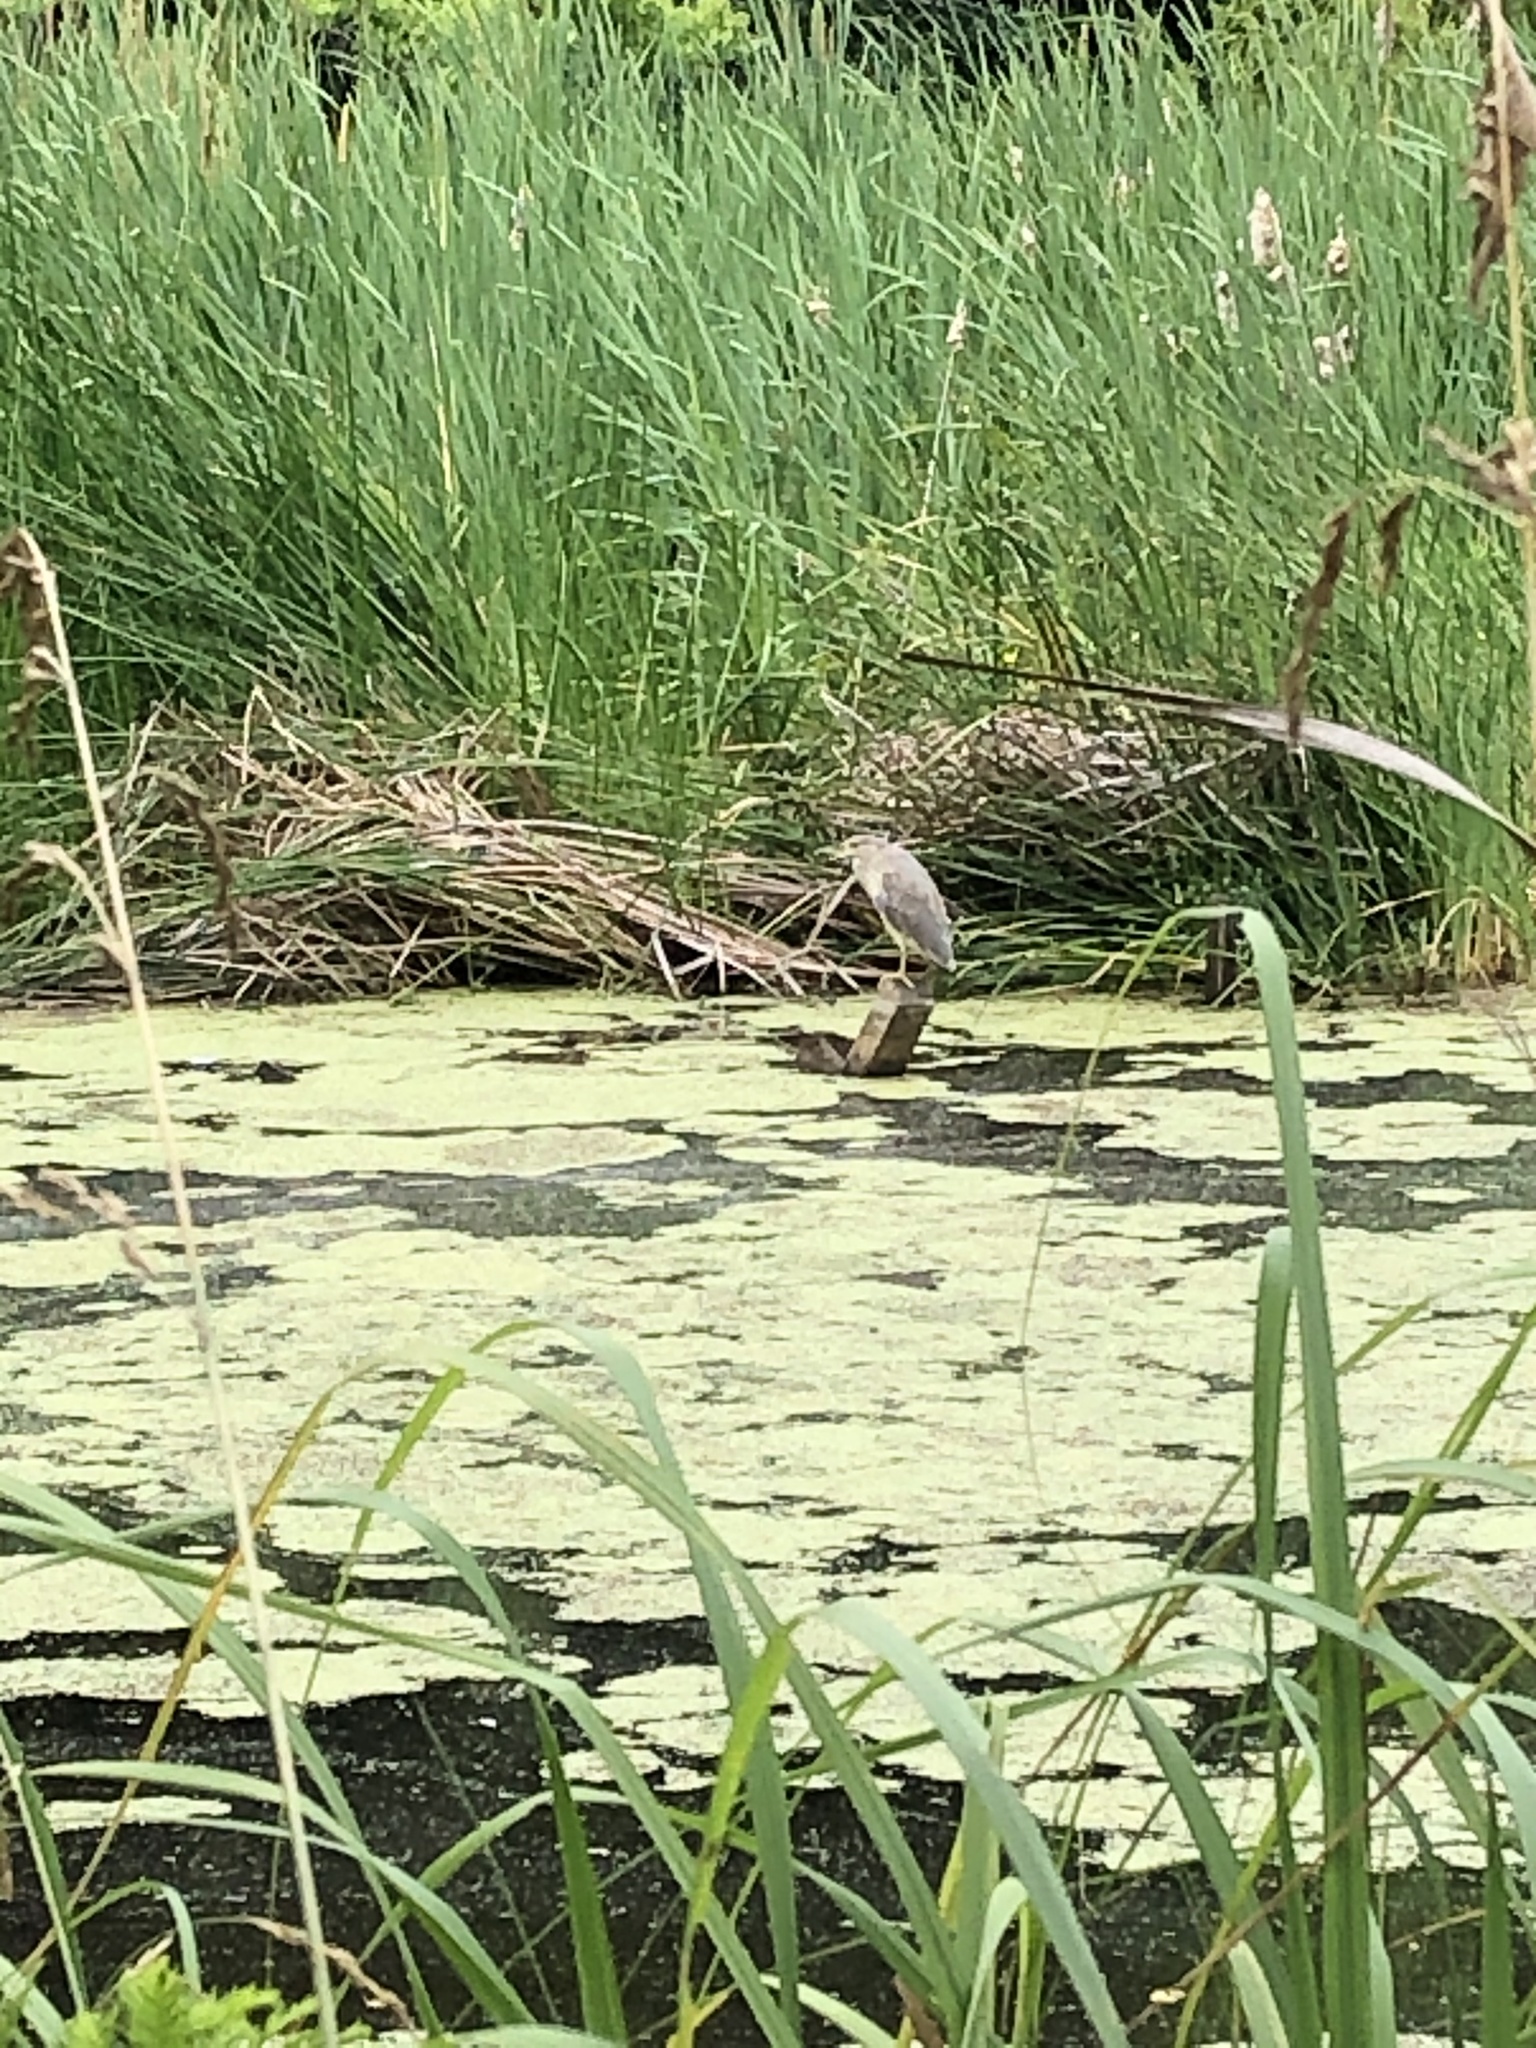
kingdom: Animalia
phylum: Chordata
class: Aves
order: Pelecaniformes
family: Ardeidae
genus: Nycticorax
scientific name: Nycticorax nycticorax
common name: Black-crowned night heron
